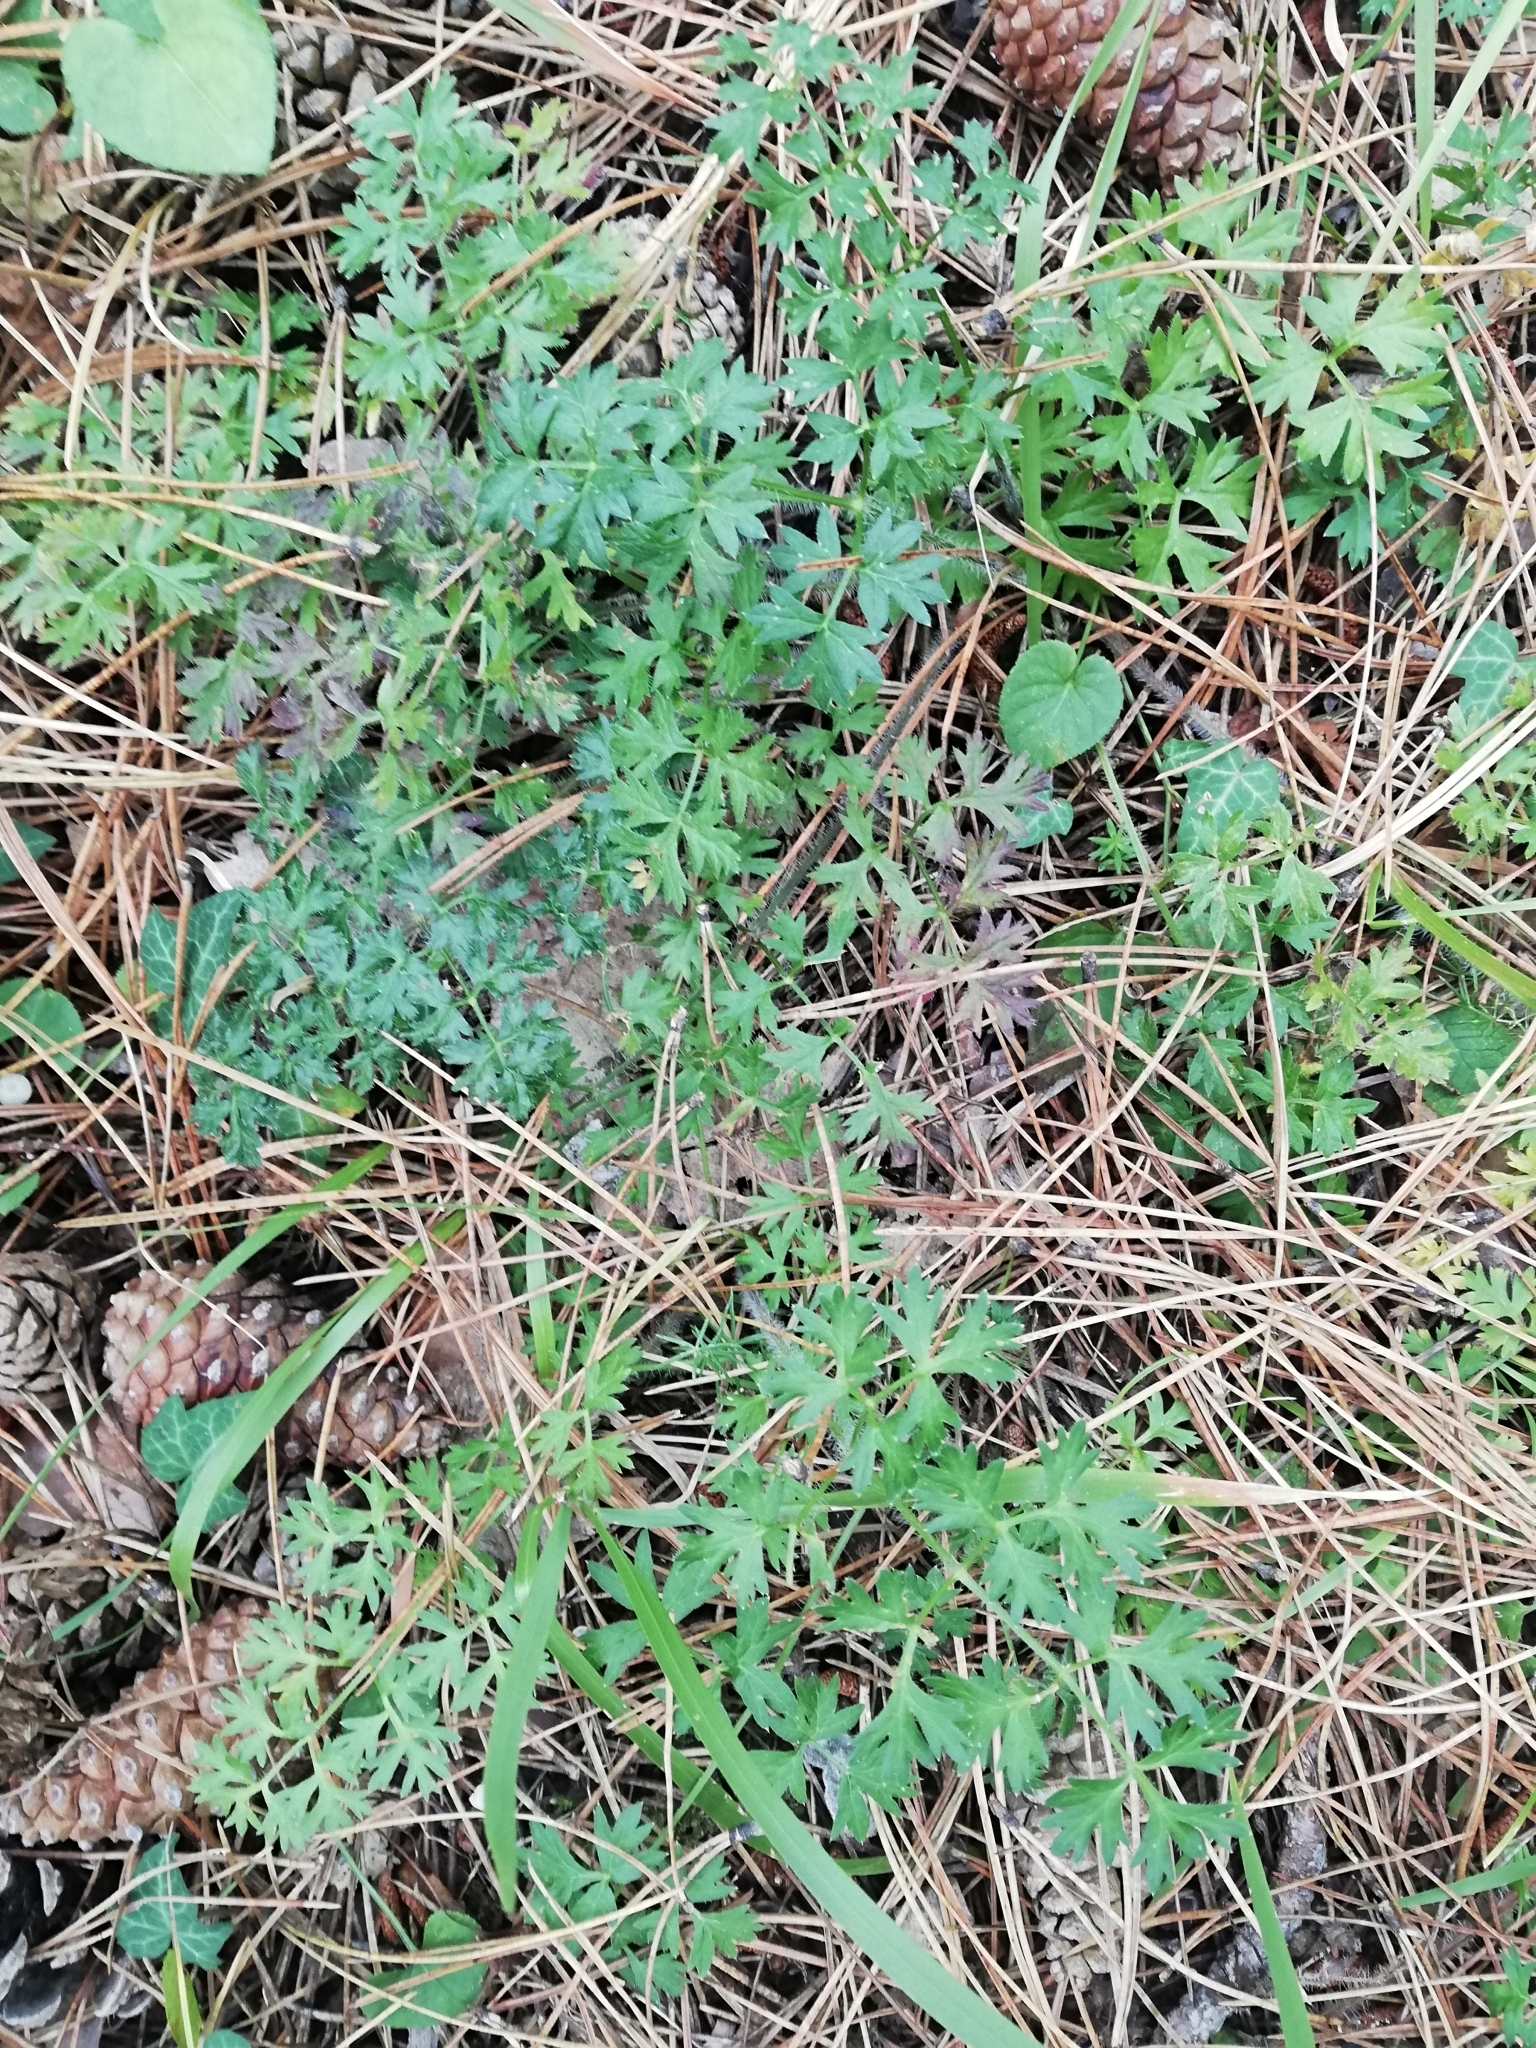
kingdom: Plantae
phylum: Tracheophyta
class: Magnoliopsida
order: Apiales
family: Apiaceae
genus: Silphiodaucus
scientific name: Silphiodaucus hispidus
